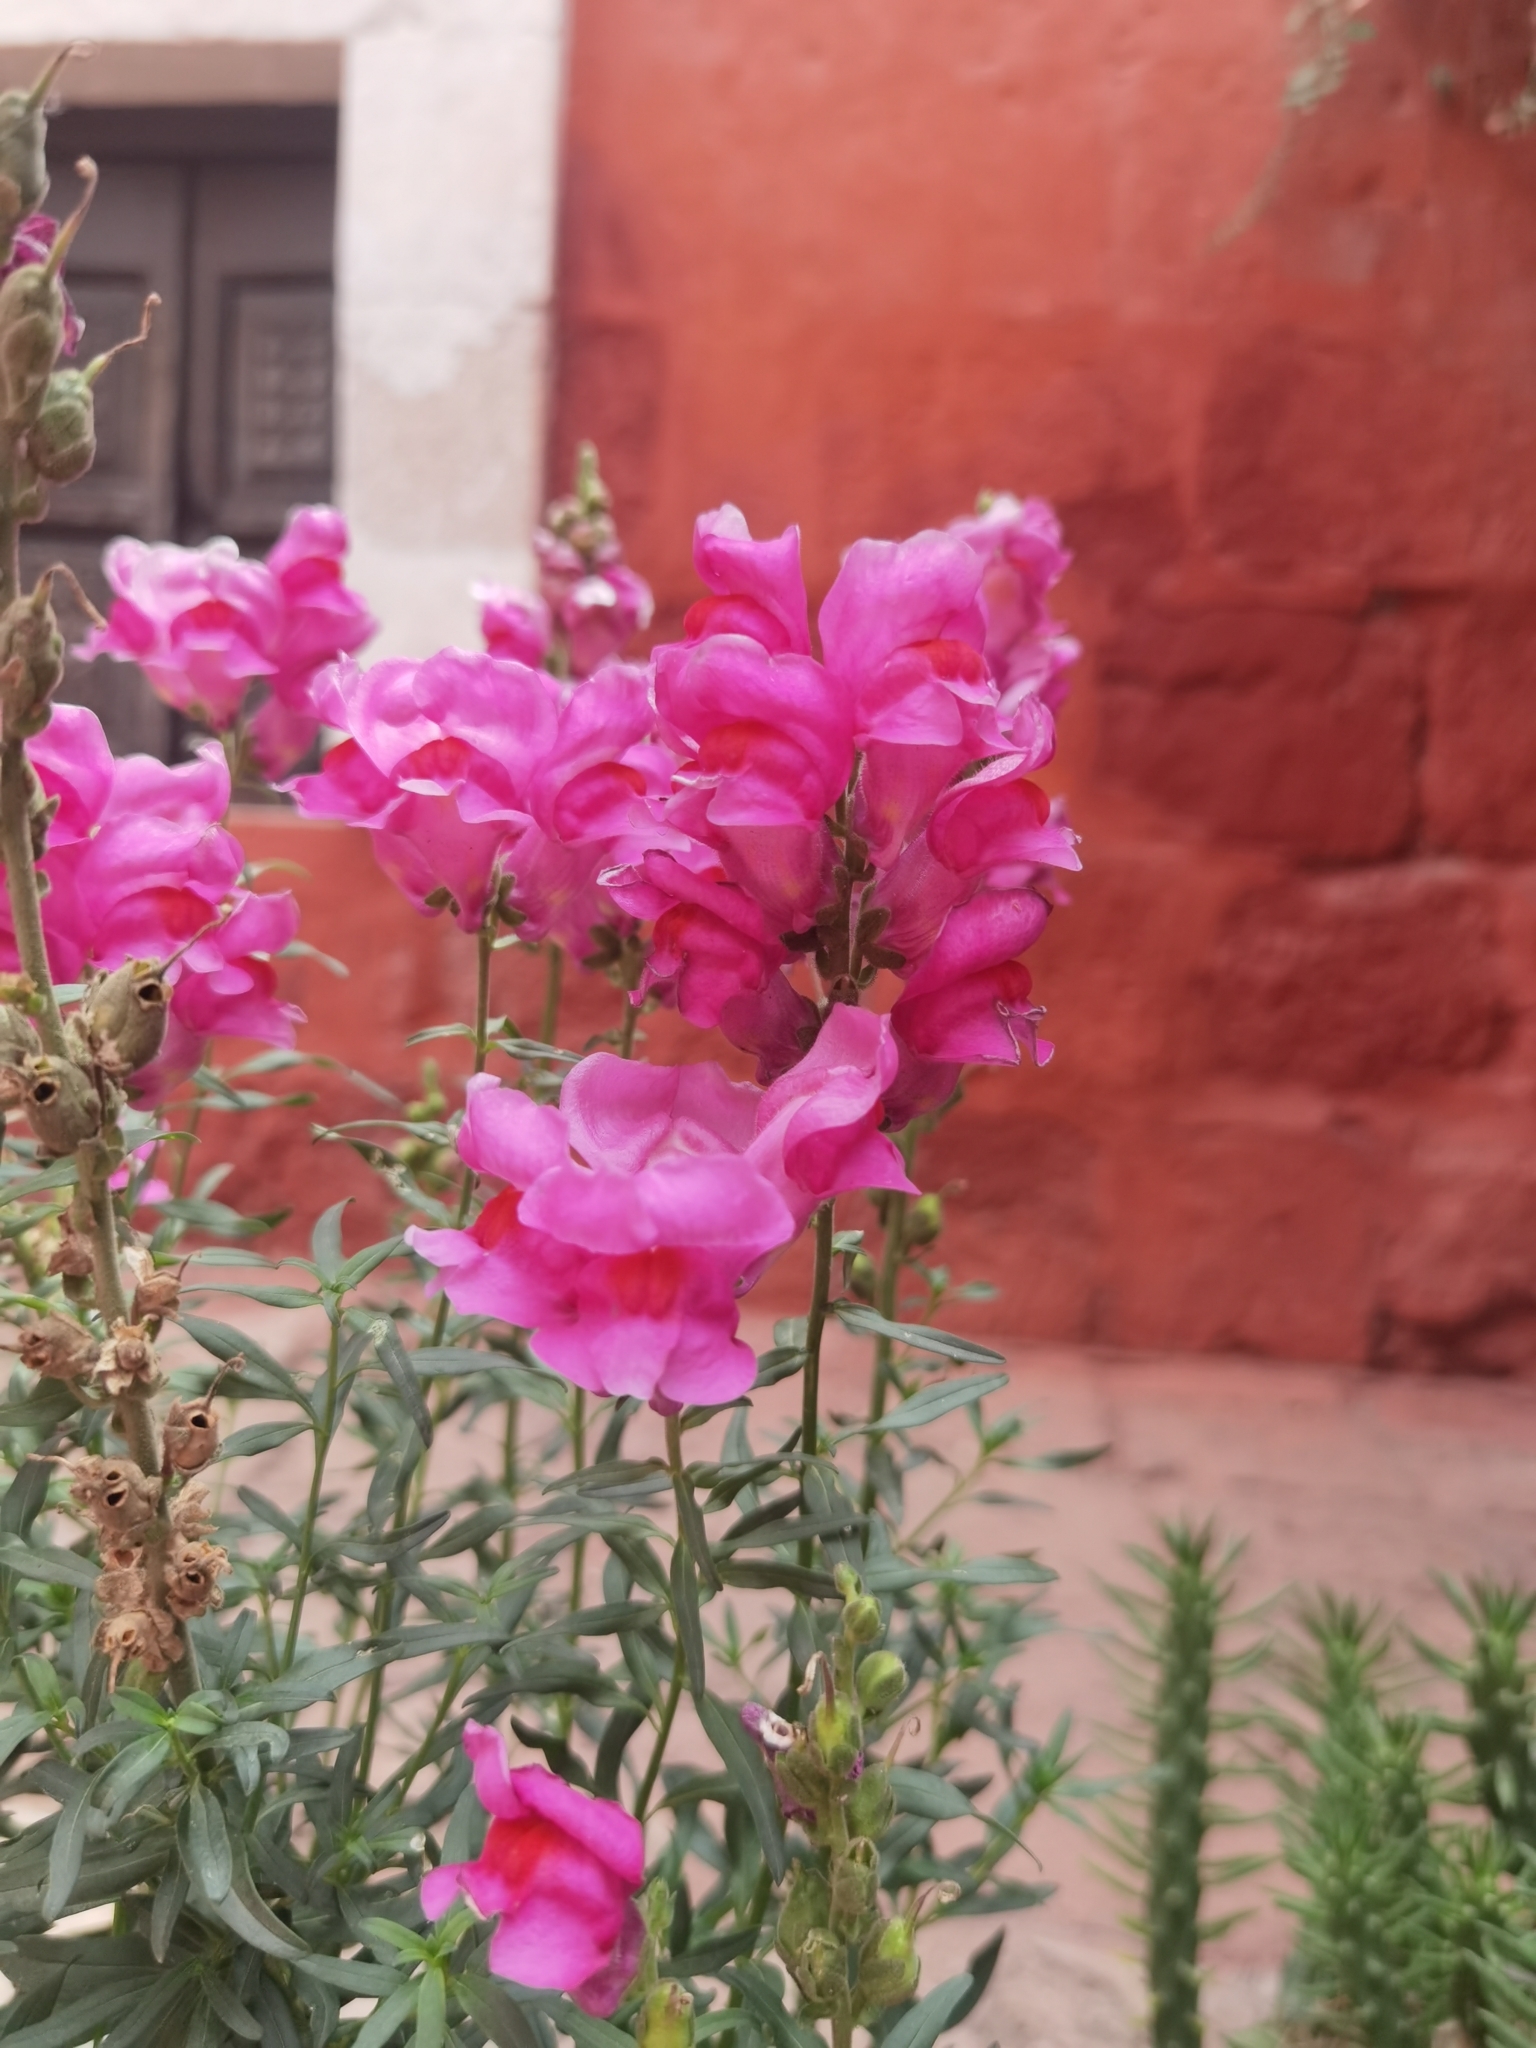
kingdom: Plantae
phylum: Tracheophyta
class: Magnoliopsida
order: Lamiales
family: Plantaginaceae
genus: Antirrhinum
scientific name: Antirrhinum majus
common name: Snapdragon
